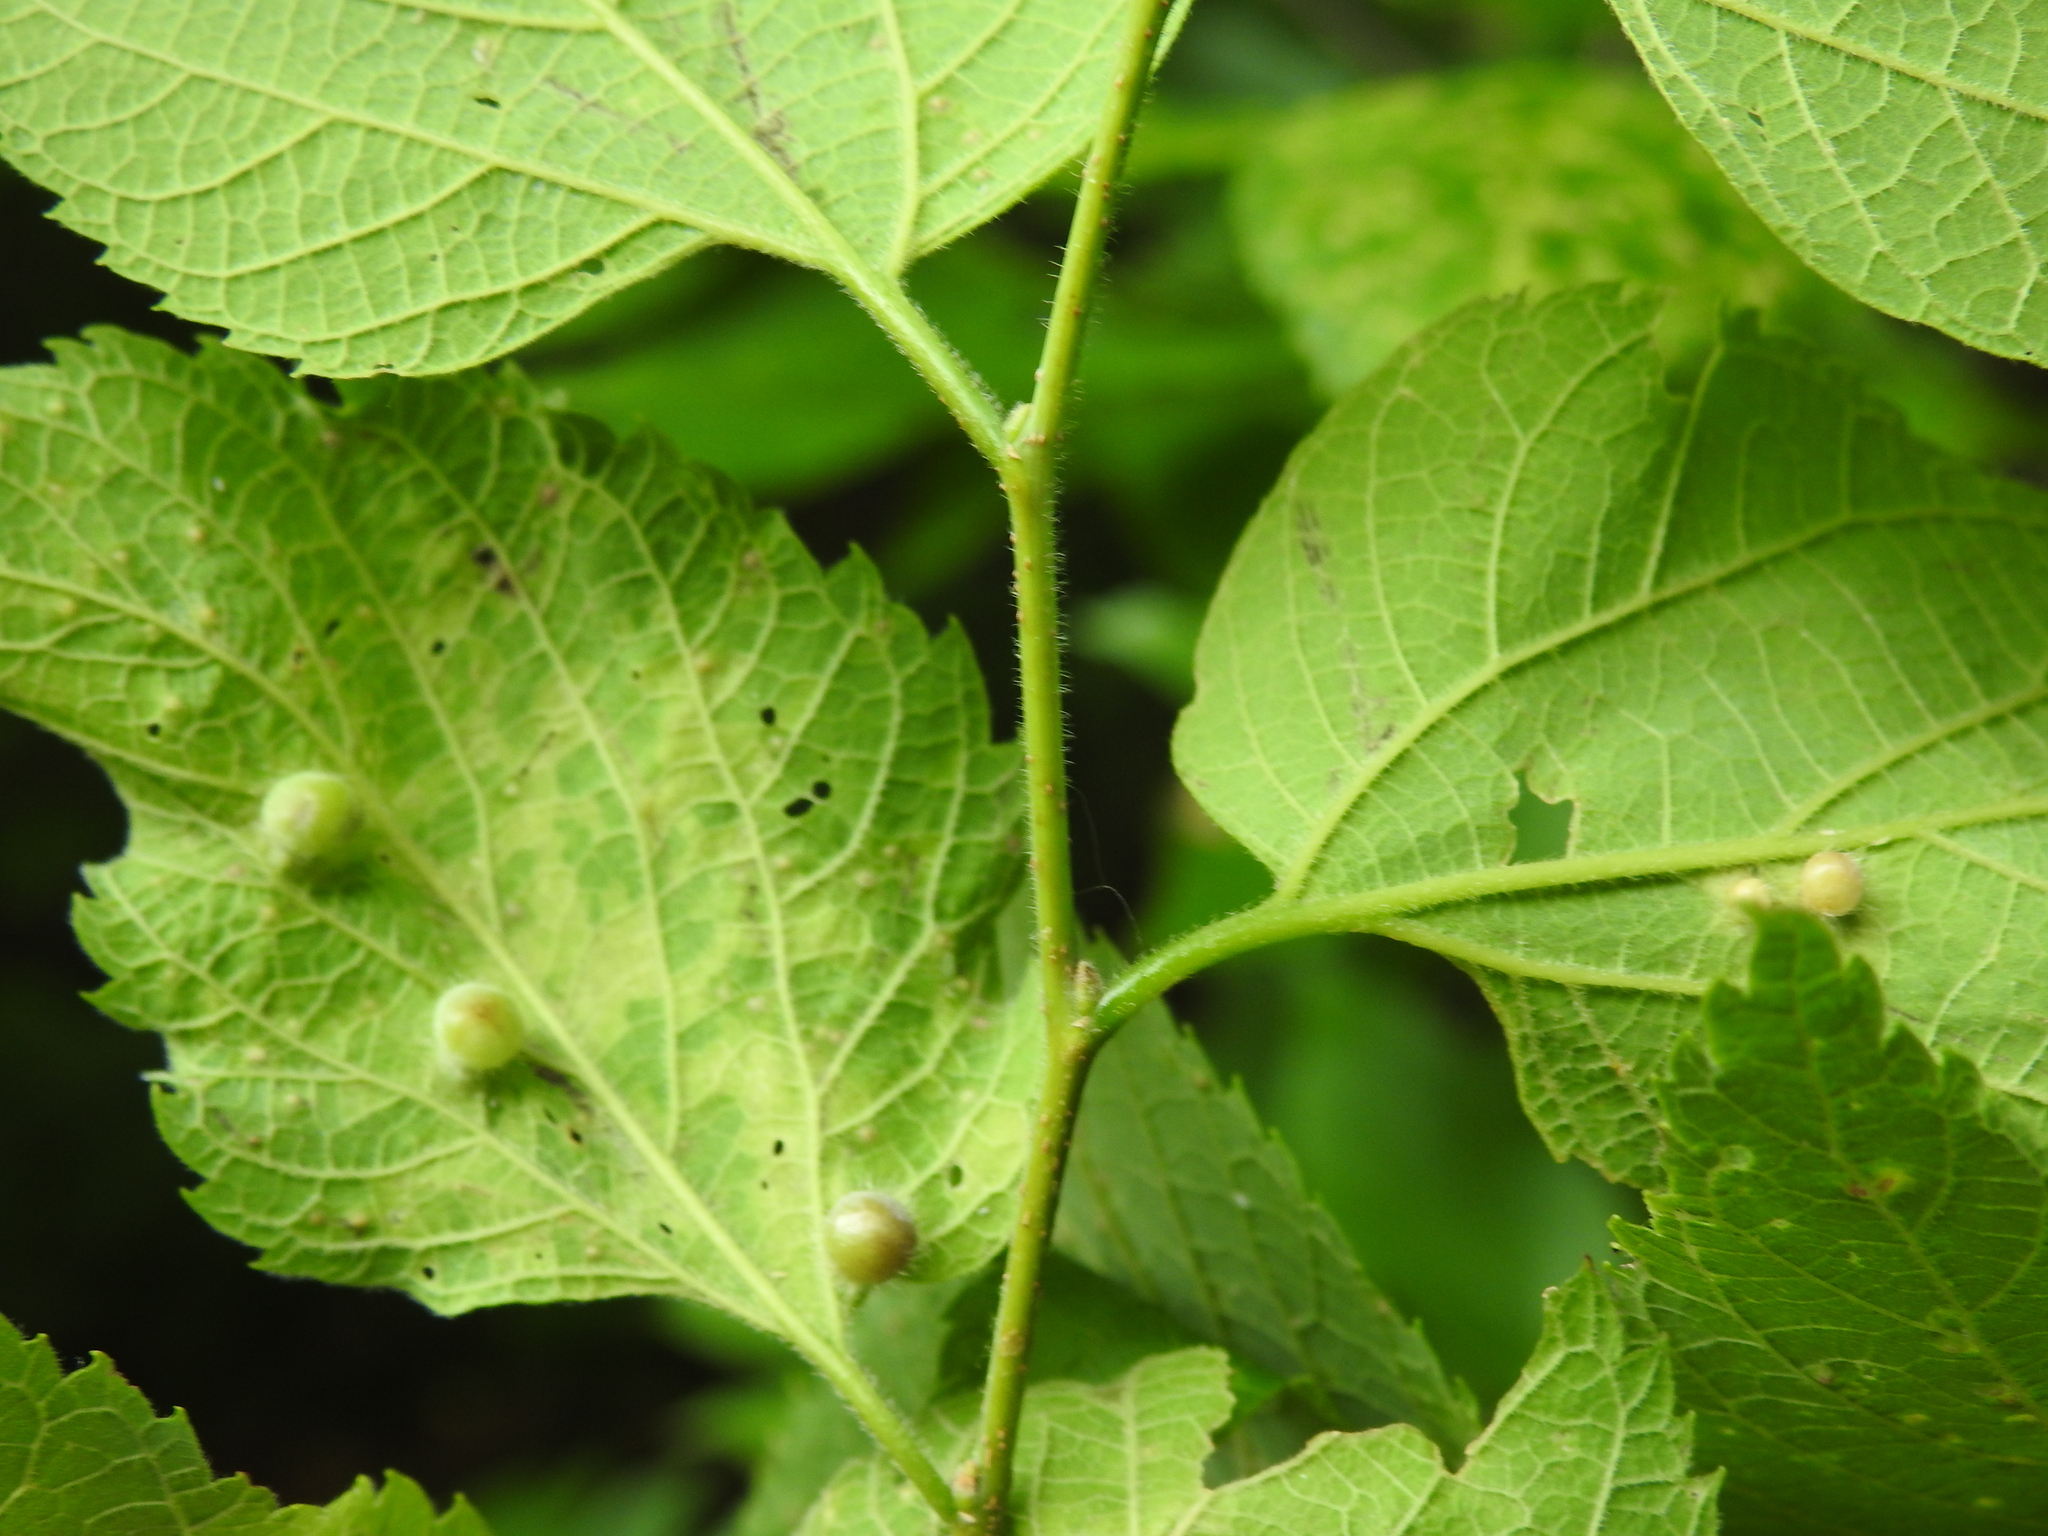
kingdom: Animalia
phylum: Arthropoda
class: Insecta
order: Hemiptera
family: Aphalaridae
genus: Pachypsylla
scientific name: Pachypsylla celtidismamma
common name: Hackberry nipplegall psyllid
